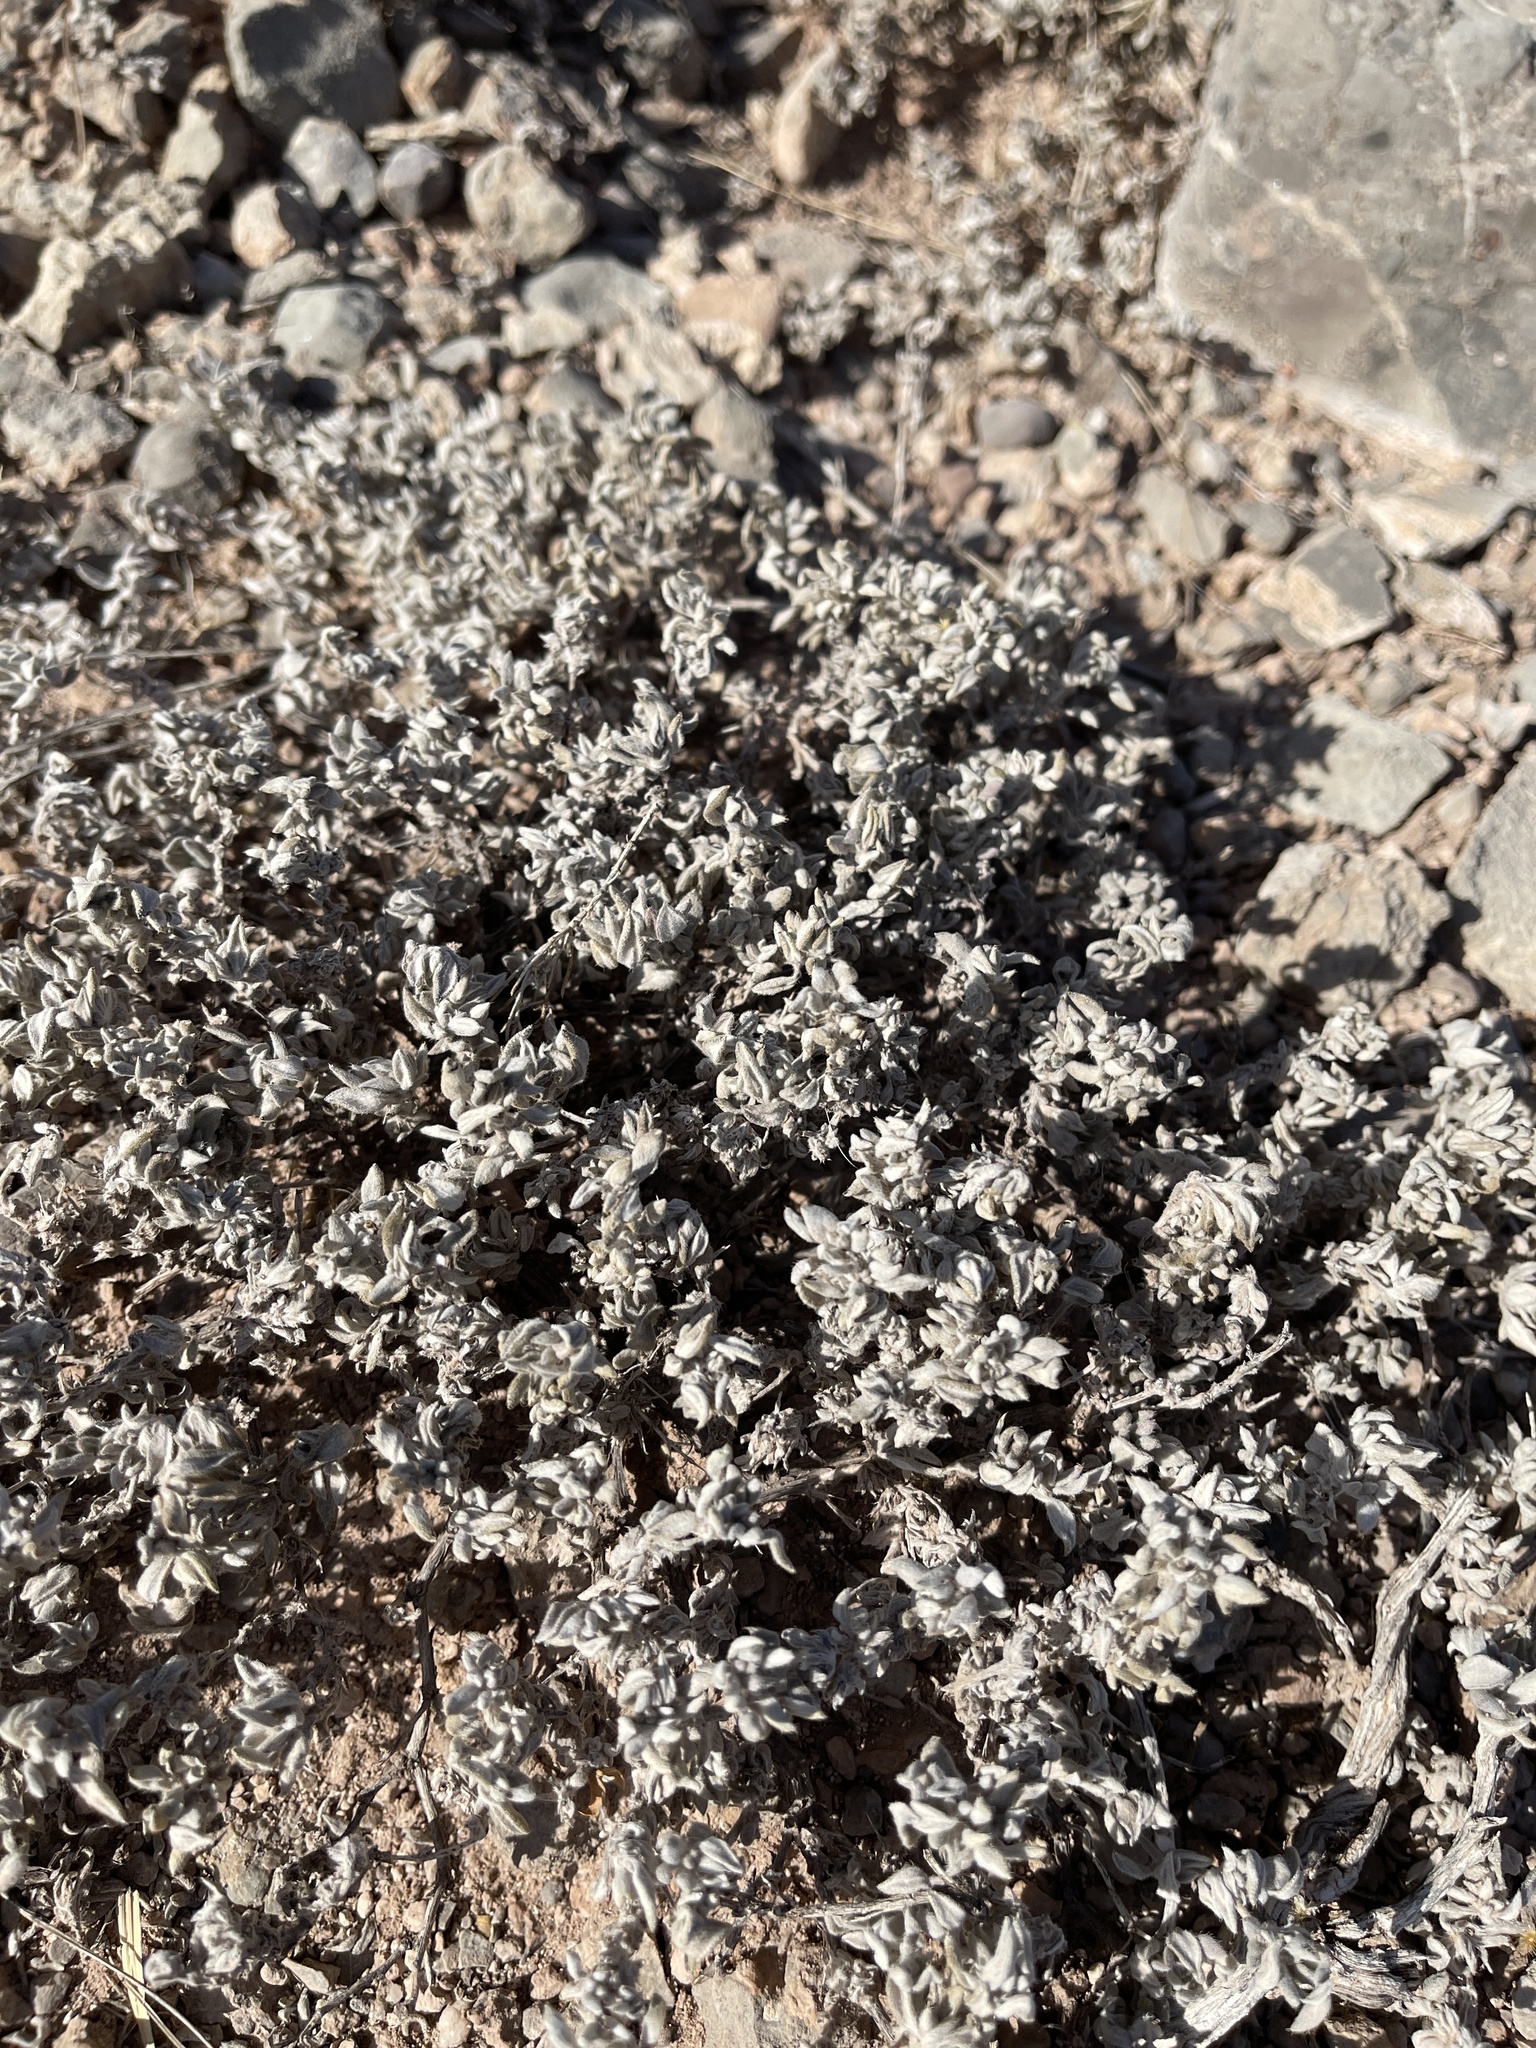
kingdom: Plantae
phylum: Tracheophyta
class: Magnoliopsida
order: Boraginales
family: Ehretiaceae
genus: Tiquilia
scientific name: Tiquilia canescens
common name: Hairy tiquilia
